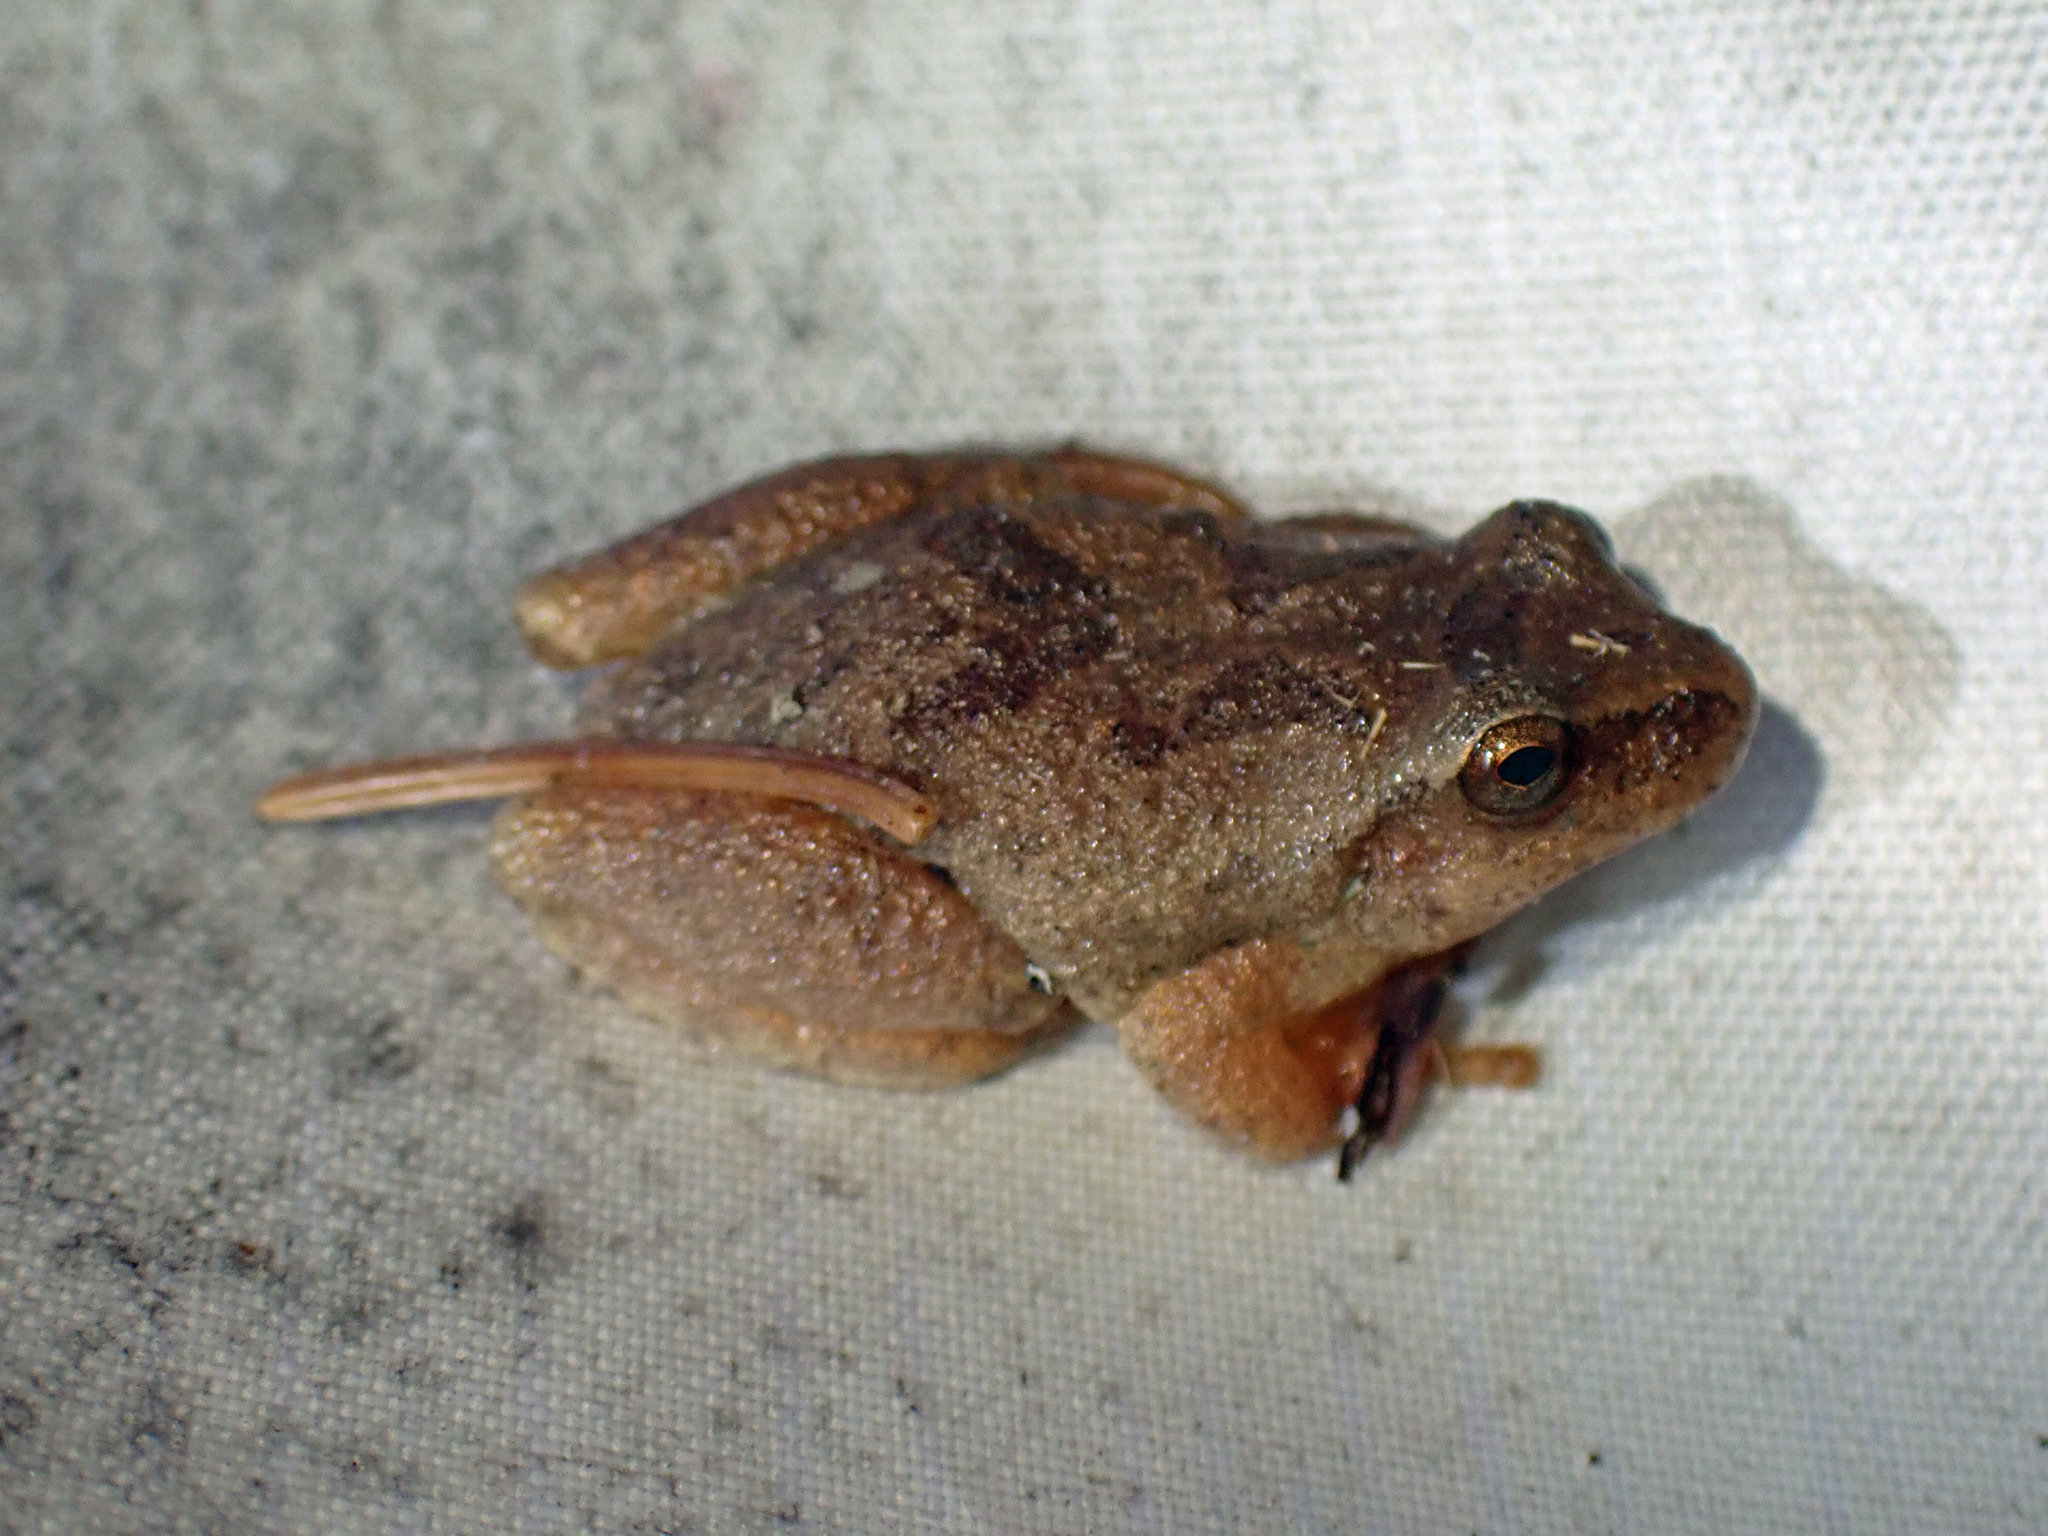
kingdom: Animalia
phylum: Chordata
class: Amphibia
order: Anura
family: Hylidae
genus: Pseudacris
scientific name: Pseudacris crucifer
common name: Spring peeper
